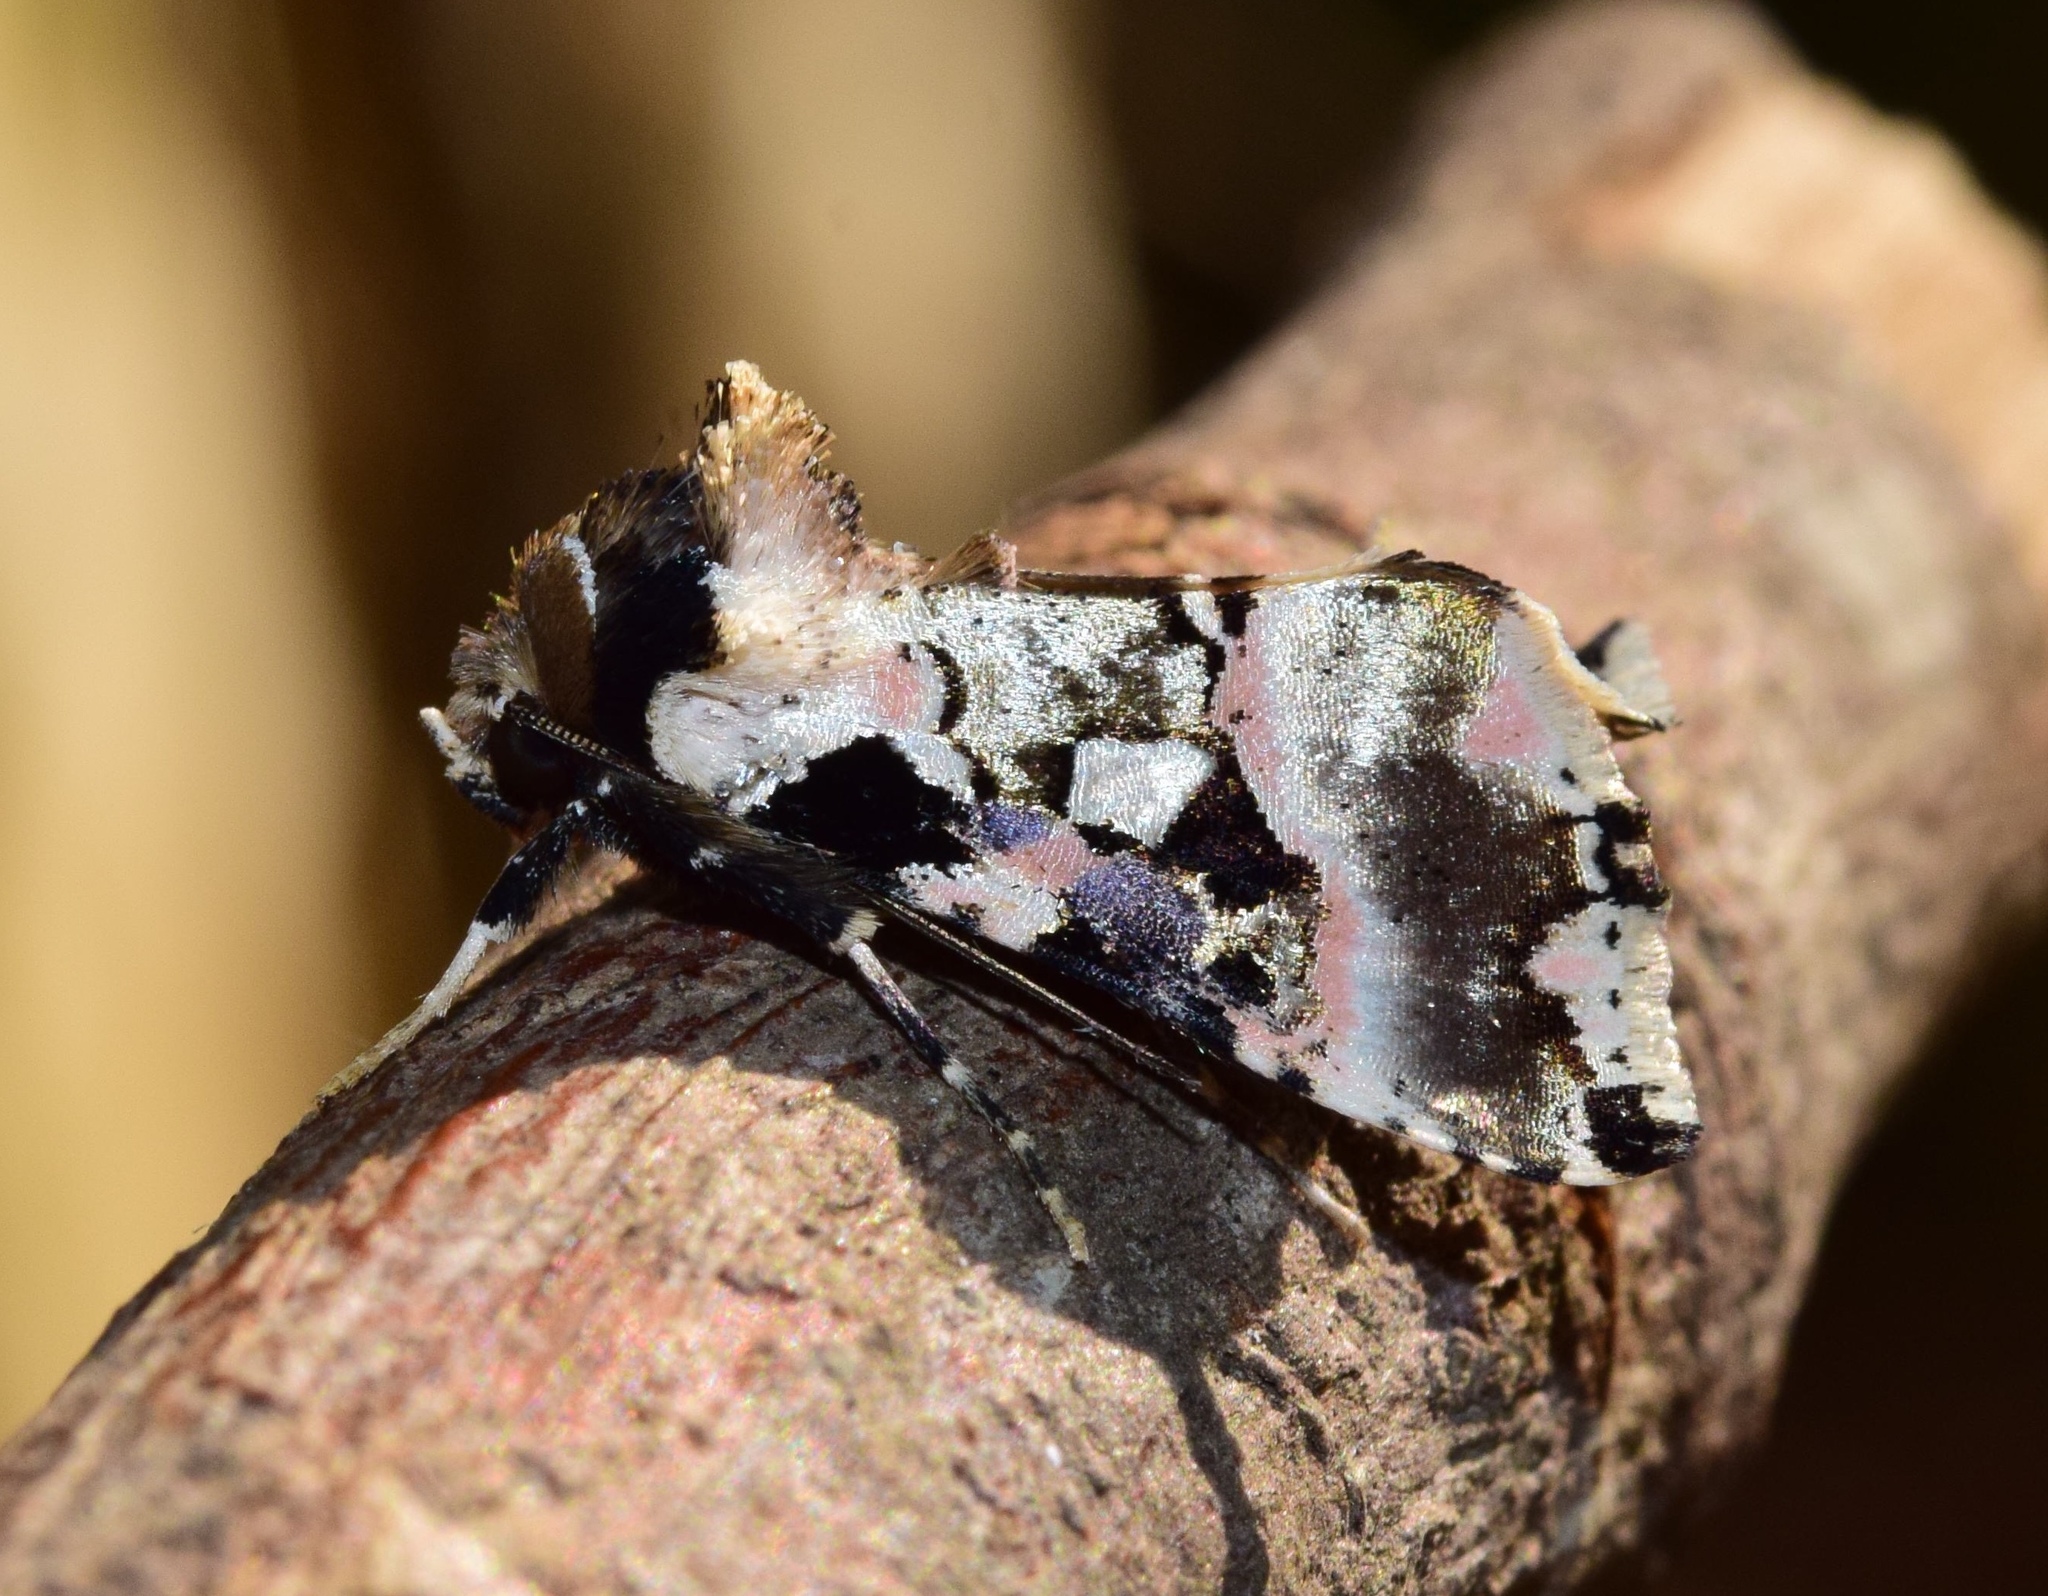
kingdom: Animalia
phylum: Arthropoda
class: Insecta
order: Lepidoptera
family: Noctuidae
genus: Trichoplusia
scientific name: Trichoplusia roseofasciata
